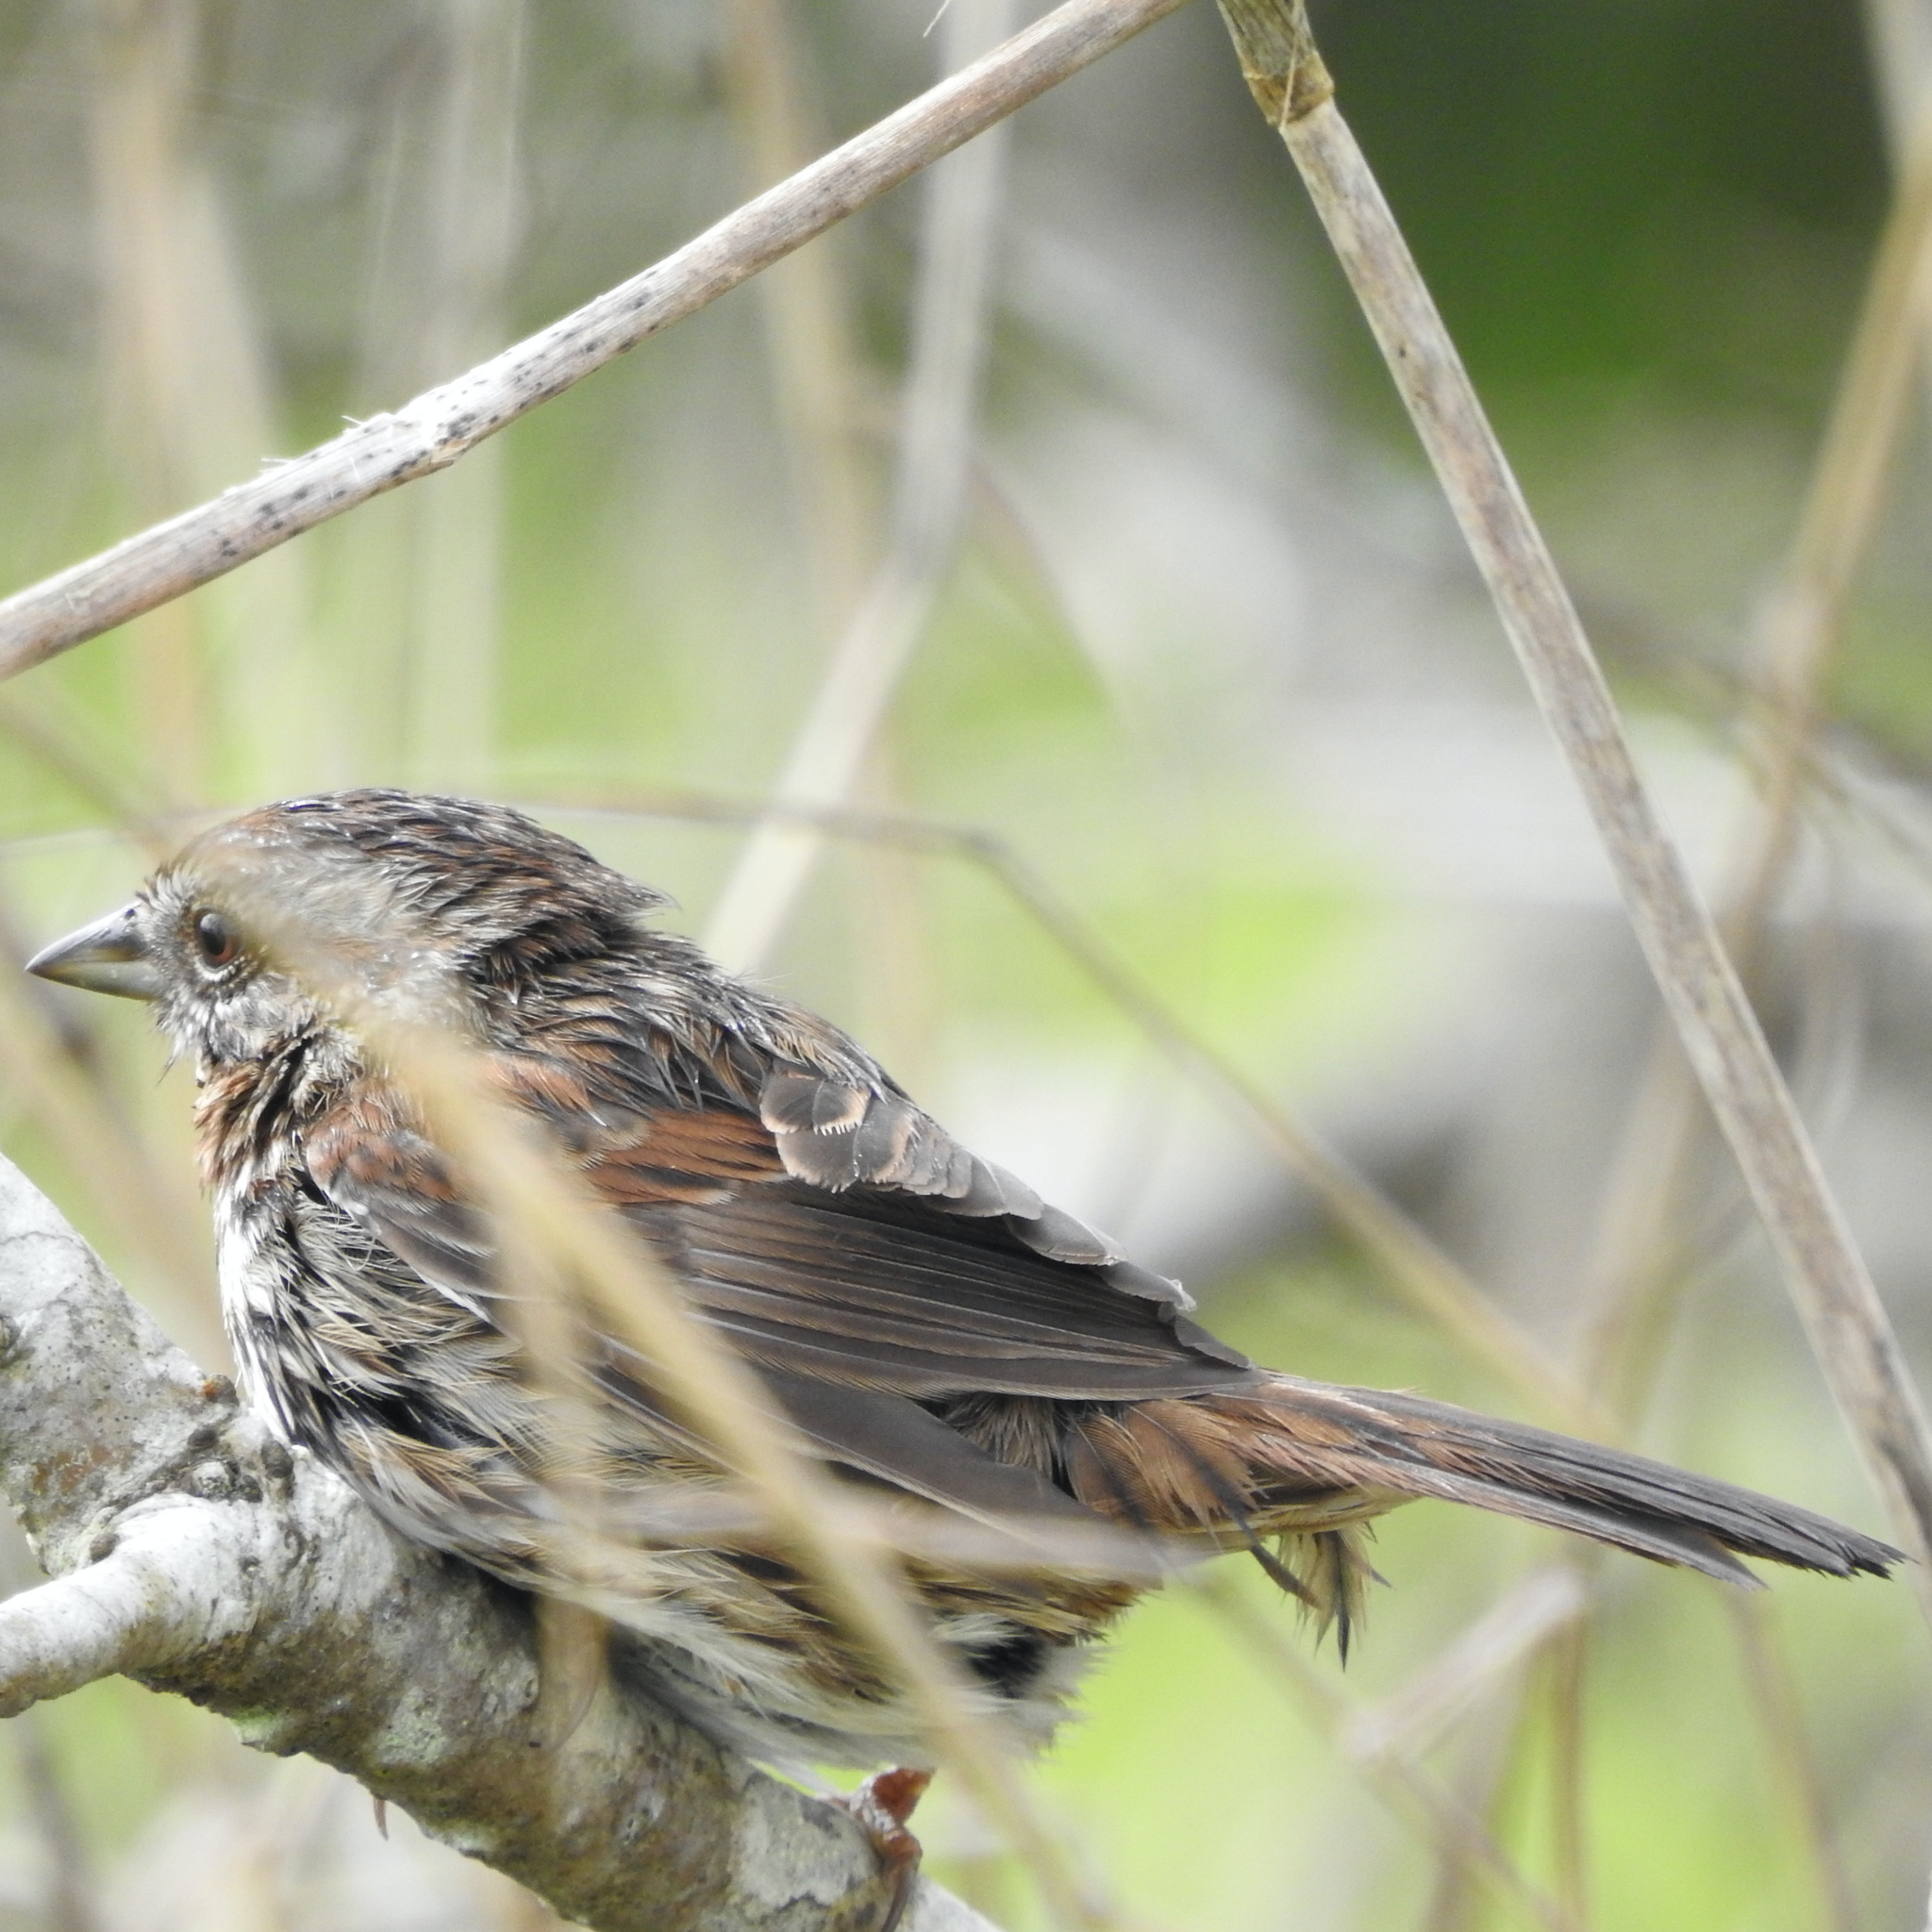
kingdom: Animalia
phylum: Chordata
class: Aves
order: Passeriformes
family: Passerellidae
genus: Melospiza
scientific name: Melospiza melodia
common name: Song sparrow
